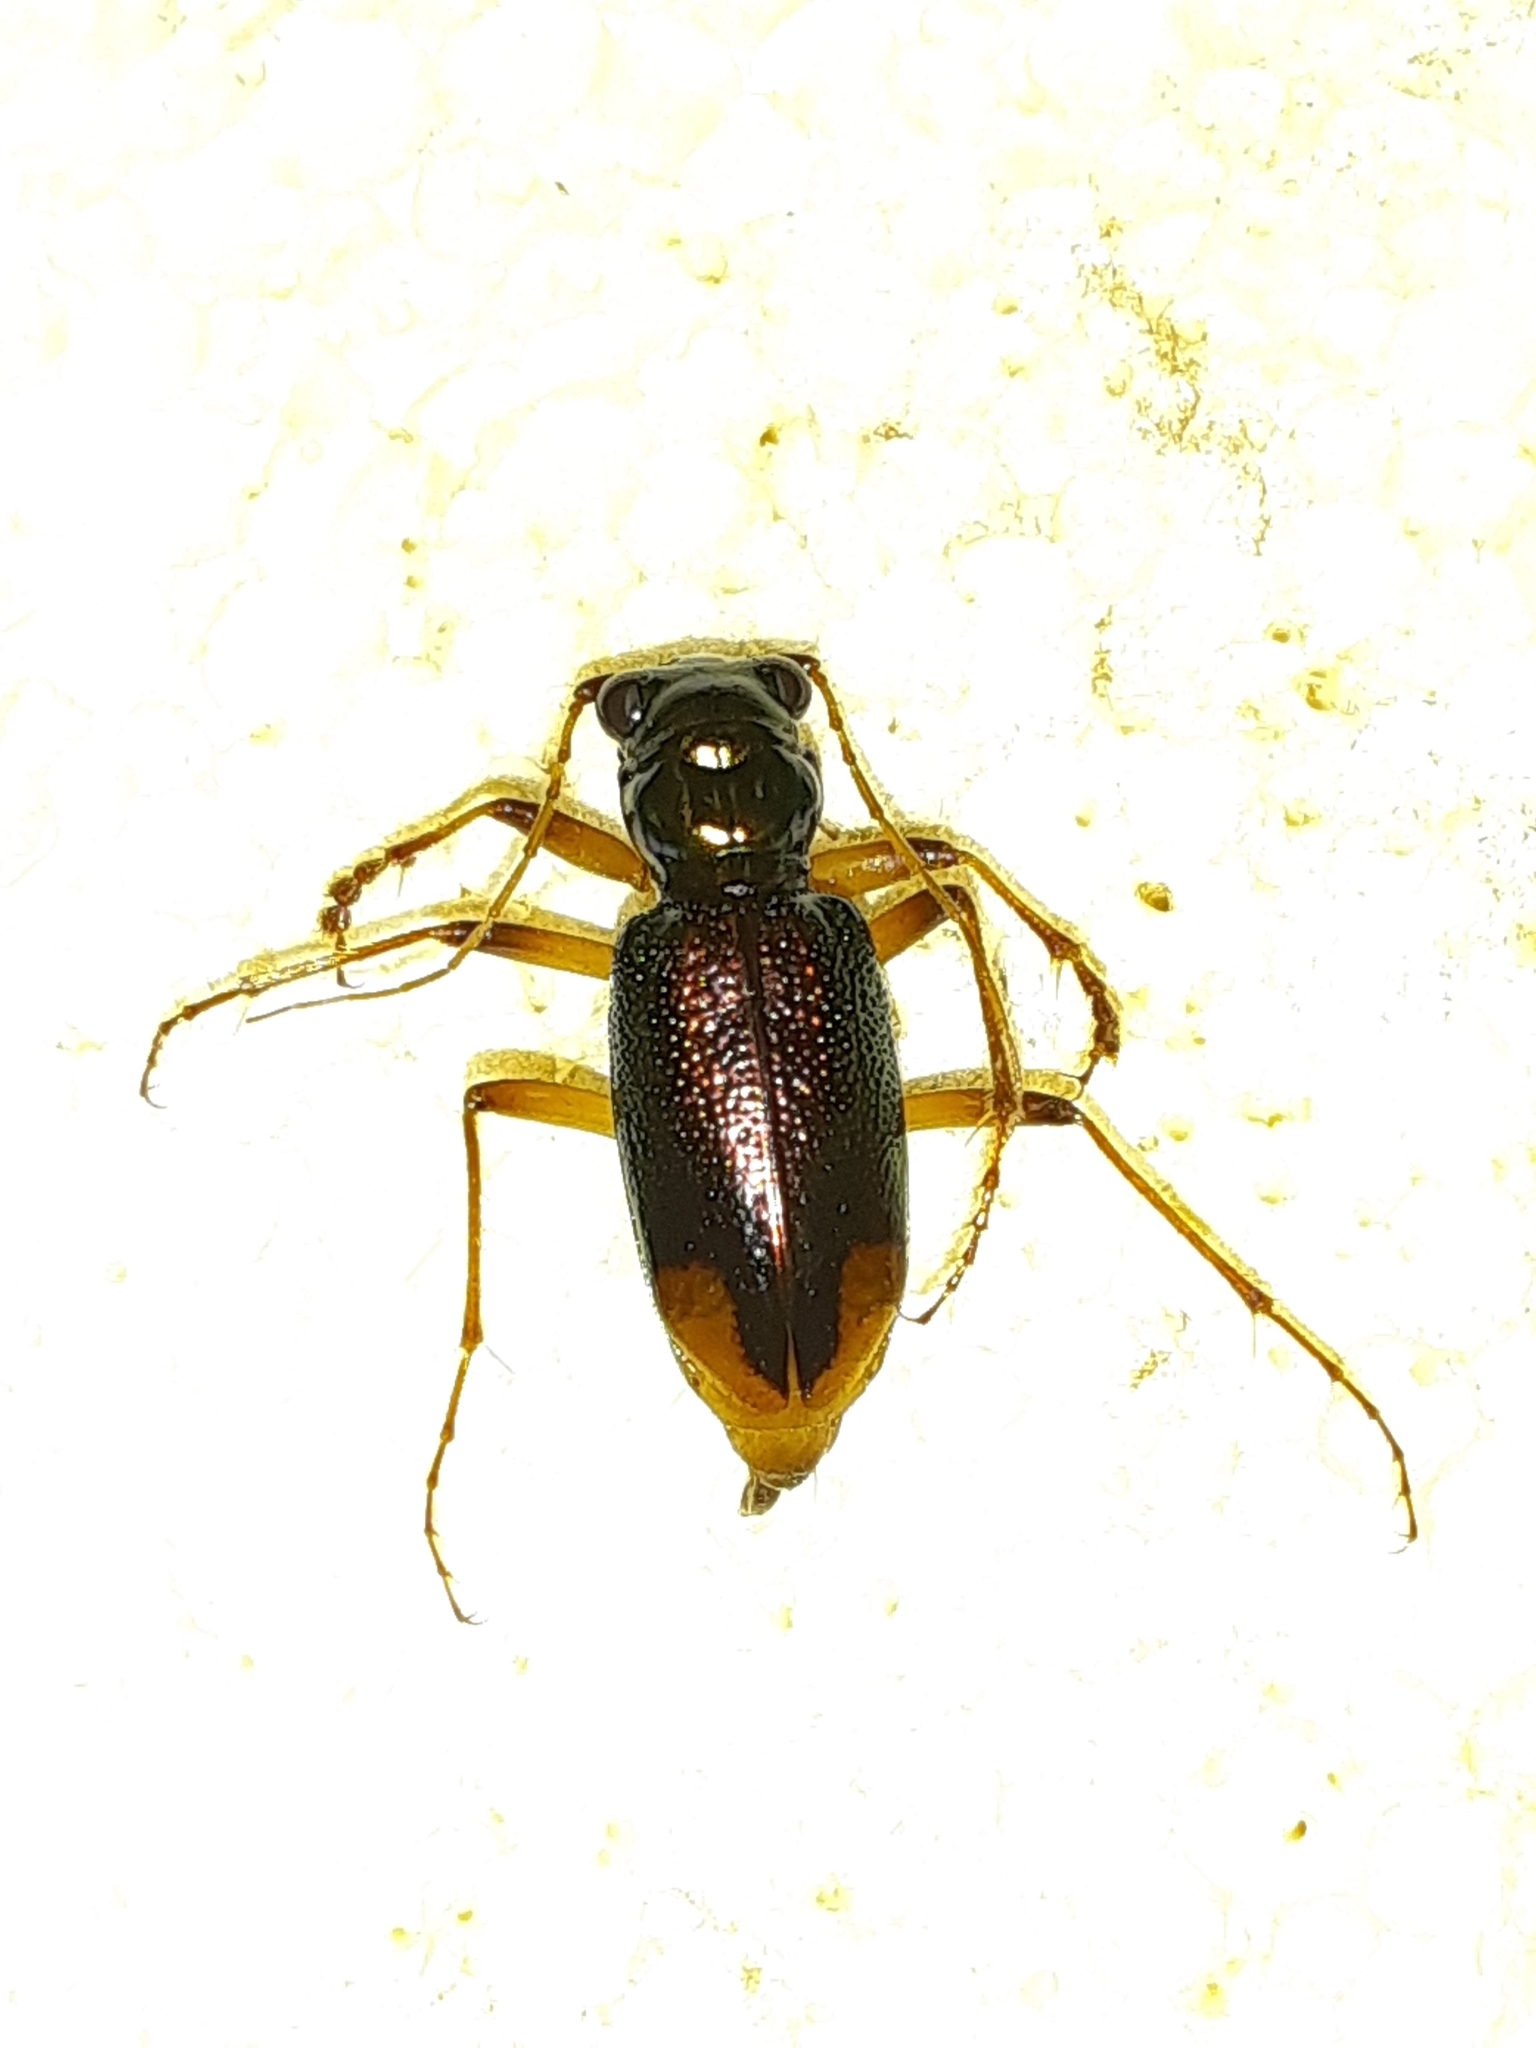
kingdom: Animalia
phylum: Arthropoda
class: Insecta
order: Coleoptera
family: Carabidae
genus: Tetracha
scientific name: Tetracha carolina
